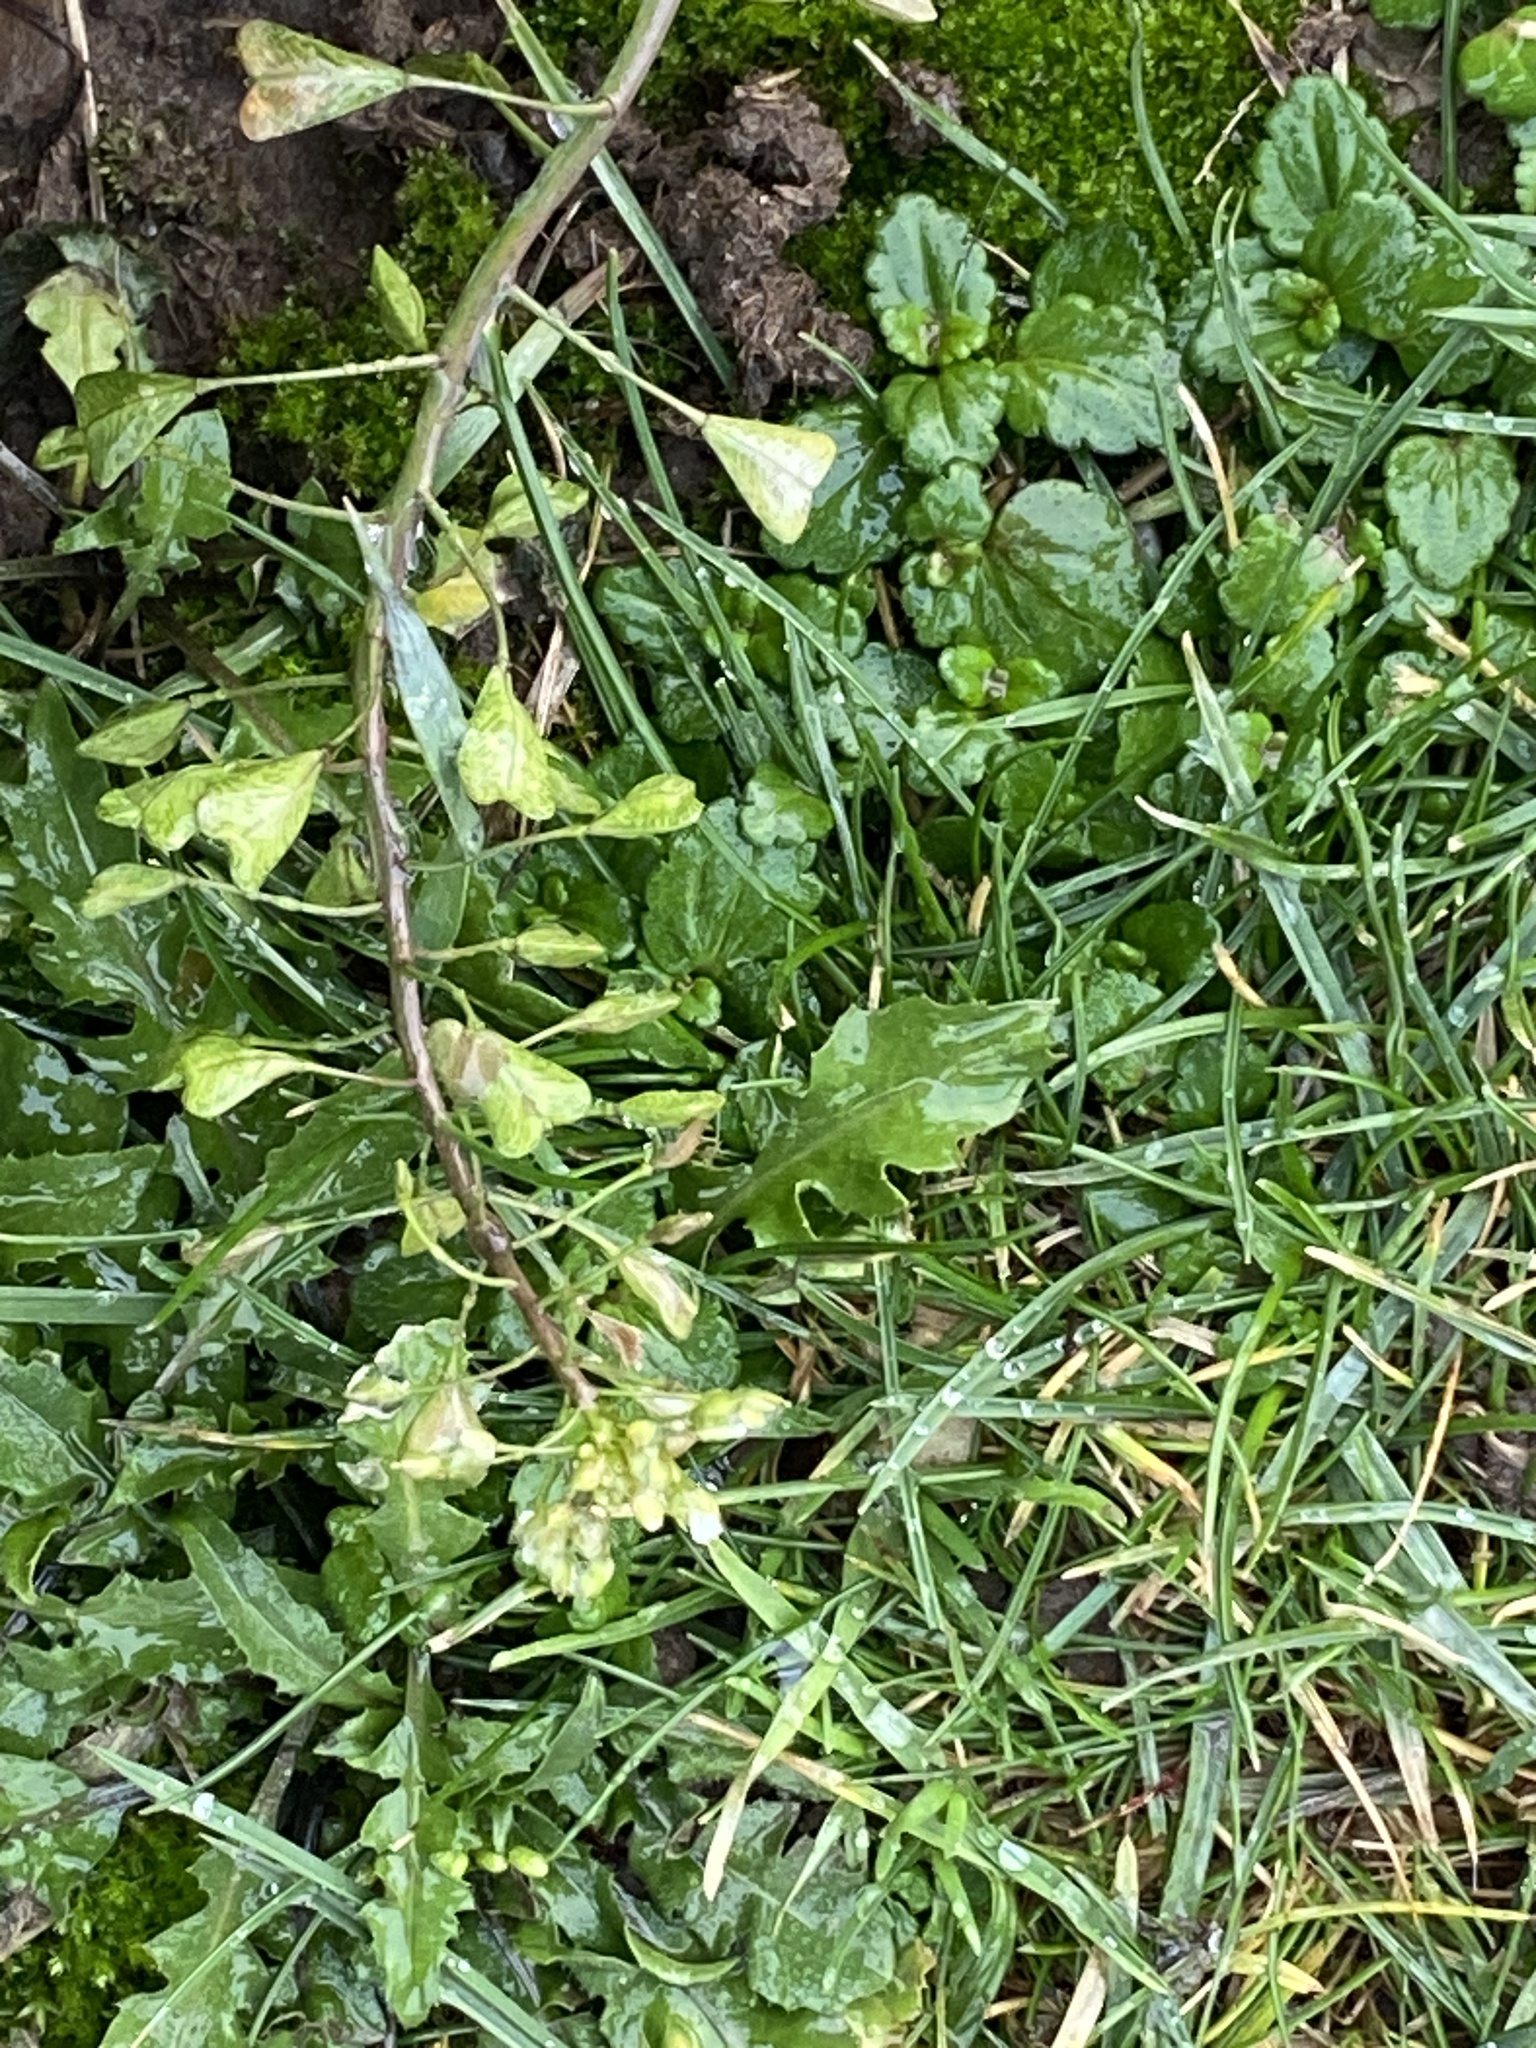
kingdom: Plantae
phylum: Tracheophyta
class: Magnoliopsida
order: Brassicales
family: Brassicaceae
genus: Capsella
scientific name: Capsella bursa-pastoris
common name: Shepherd's purse
